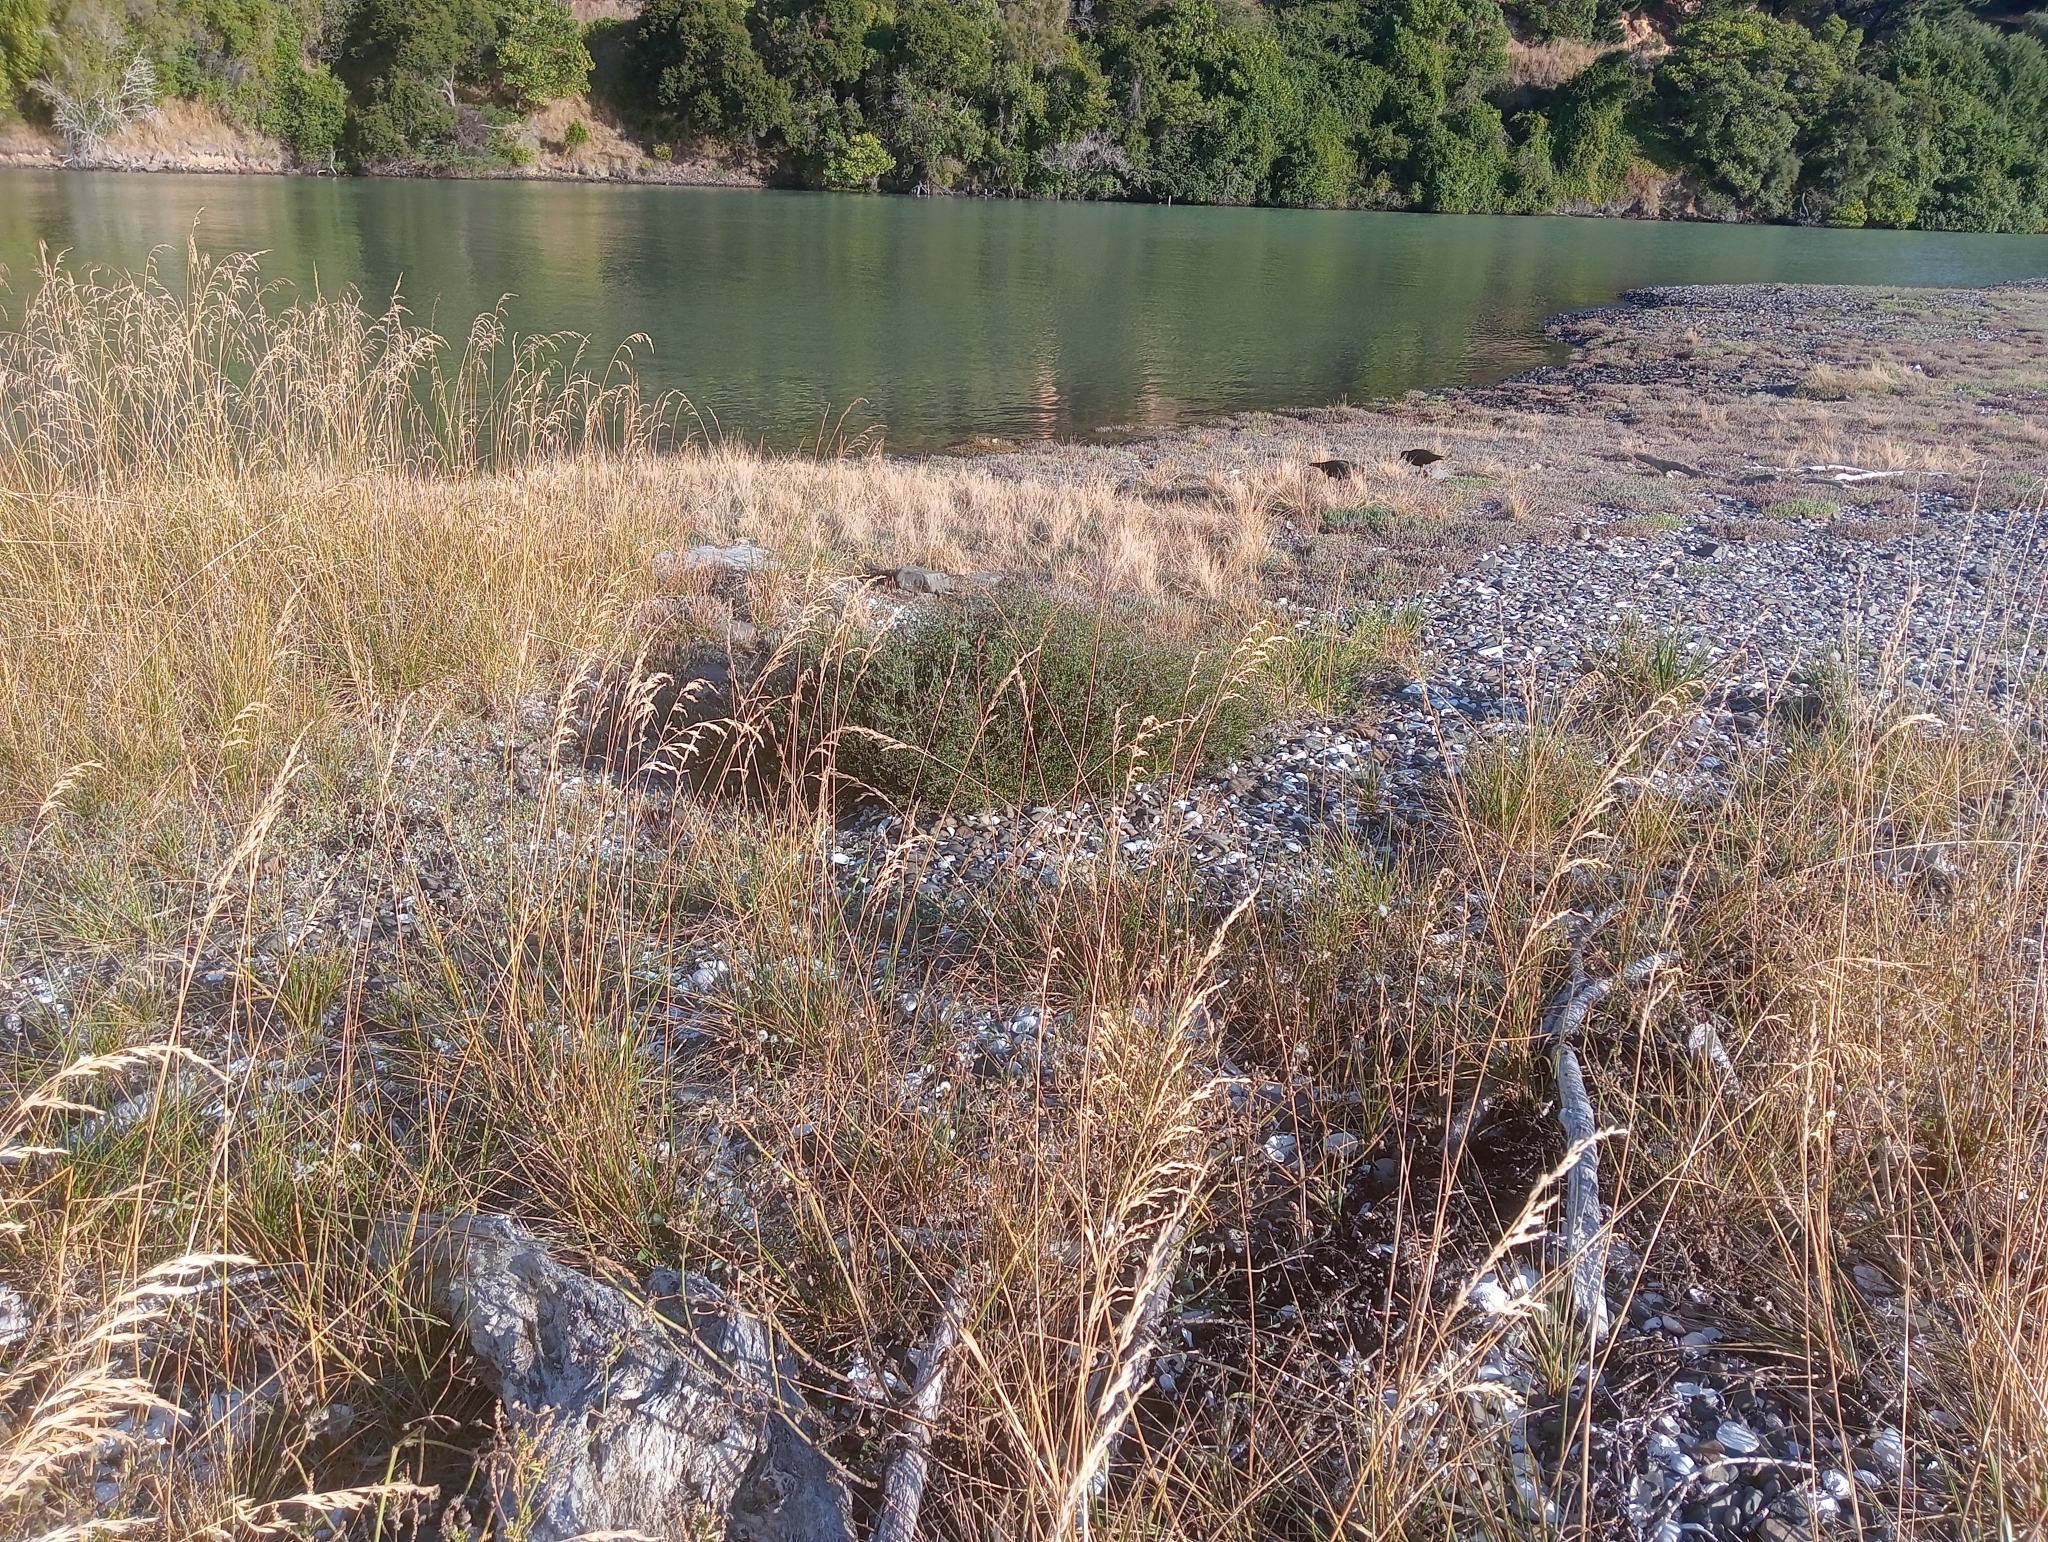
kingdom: Plantae
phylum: Tracheophyta
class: Magnoliopsida
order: Malvales
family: Malvaceae
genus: Plagianthus
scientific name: Plagianthus divaricatus
